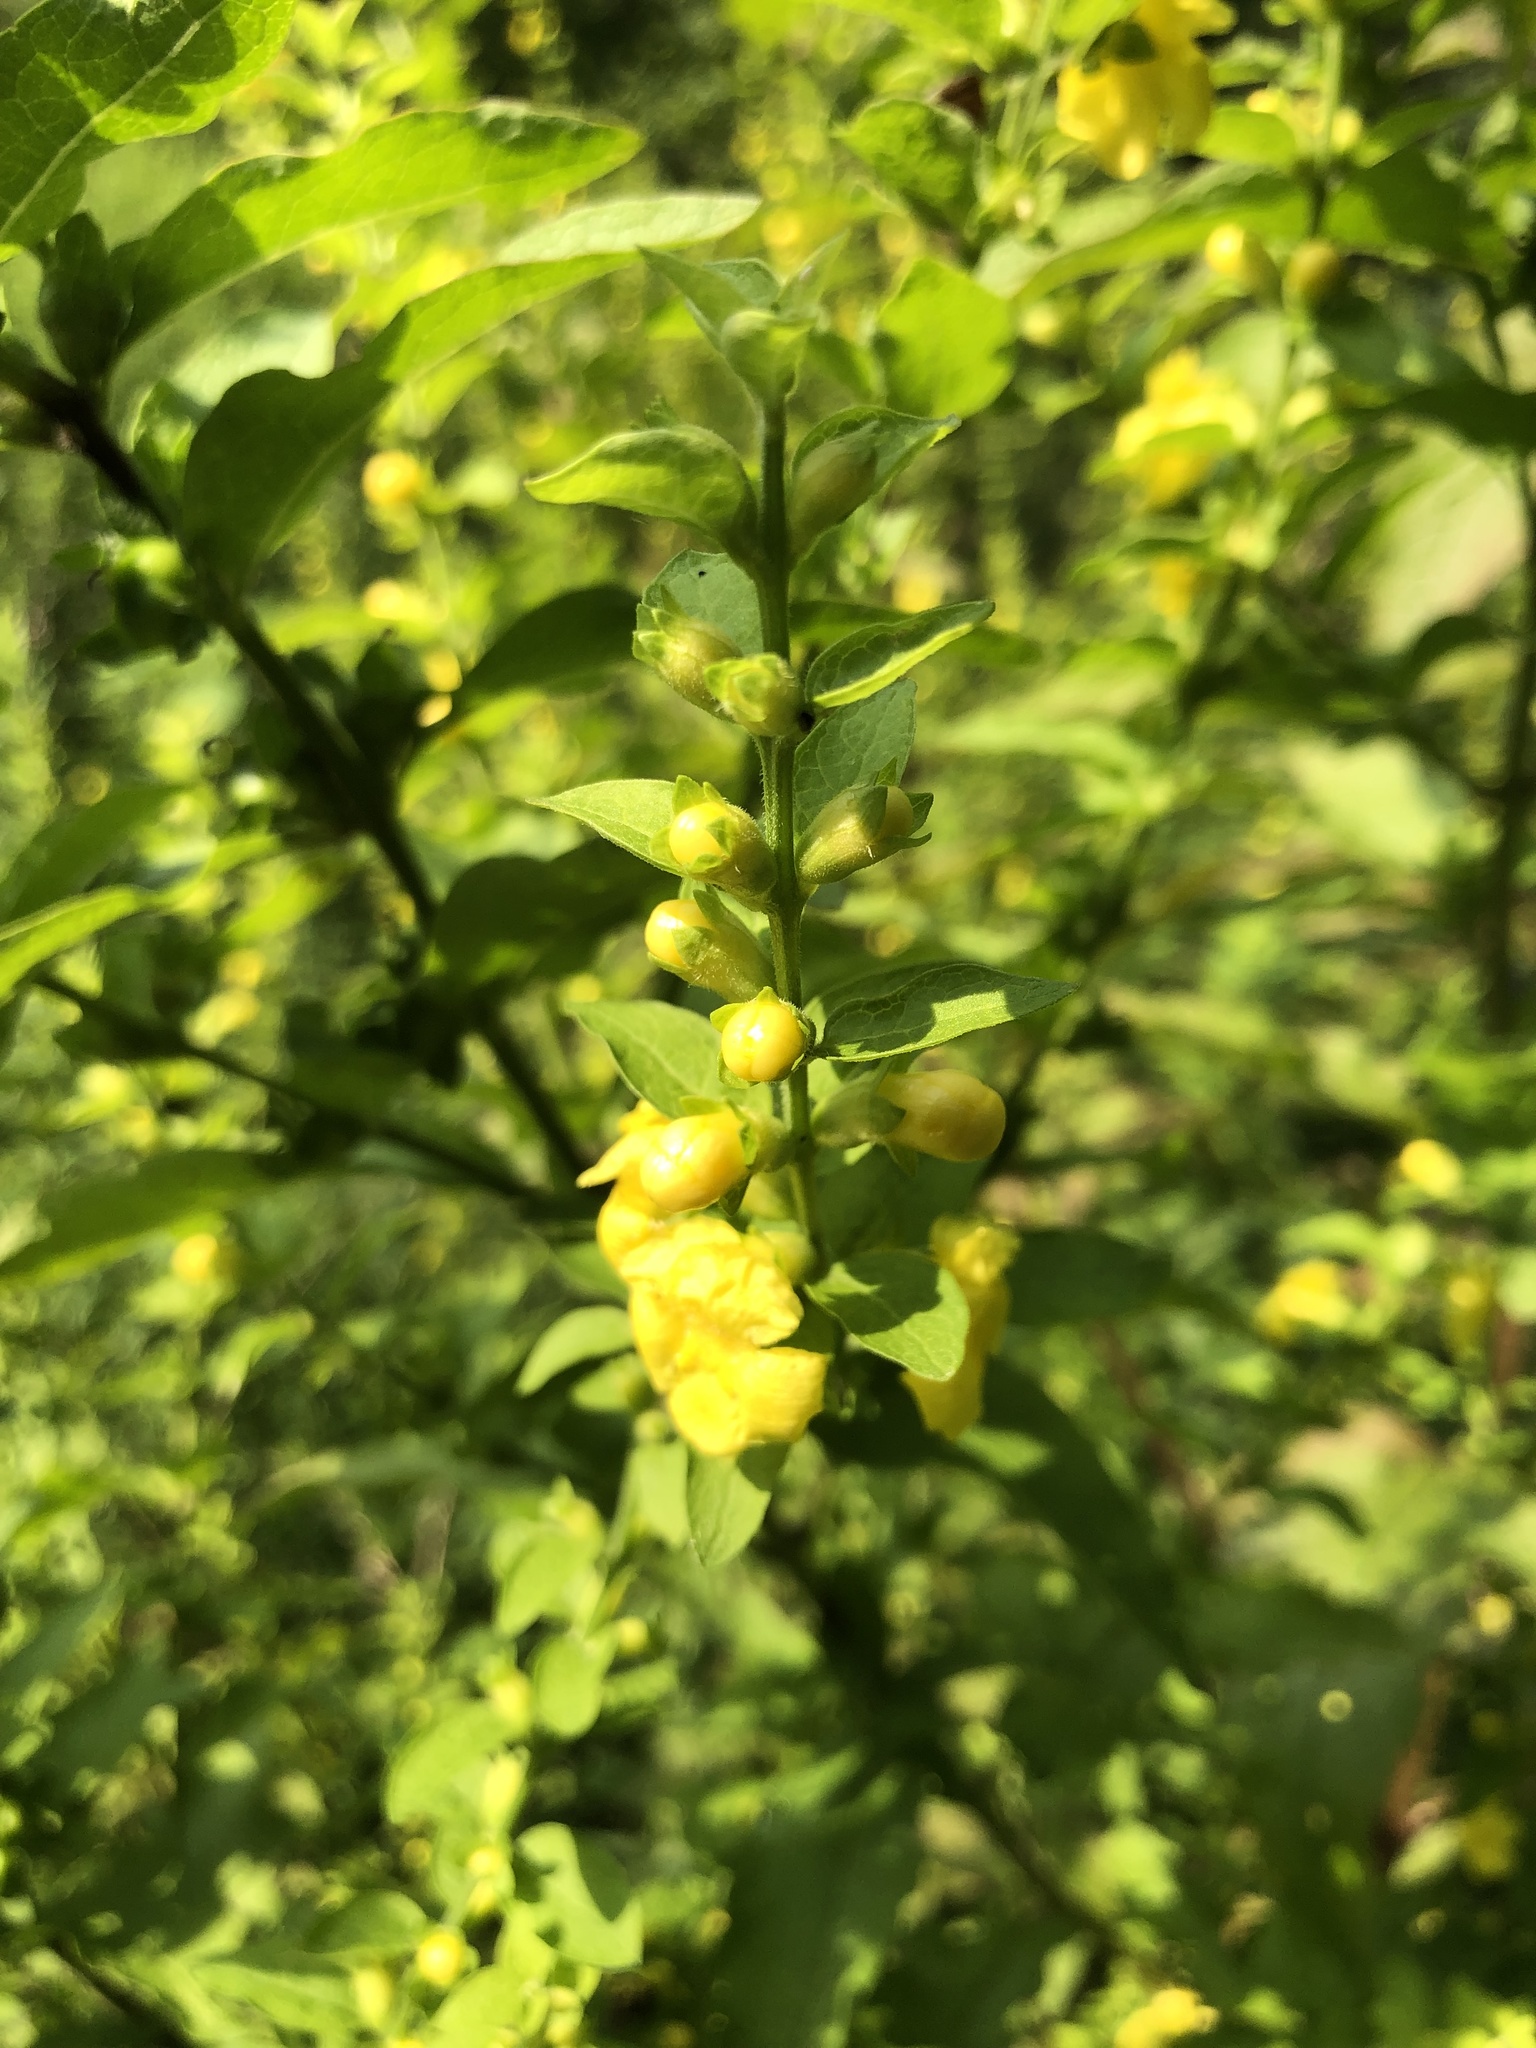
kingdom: Plantae
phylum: Tracheophyta
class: Magnoliopsida
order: Lamiales
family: Orobanchaceae
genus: Dasistoma
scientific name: Dasistoma macrophyllum
